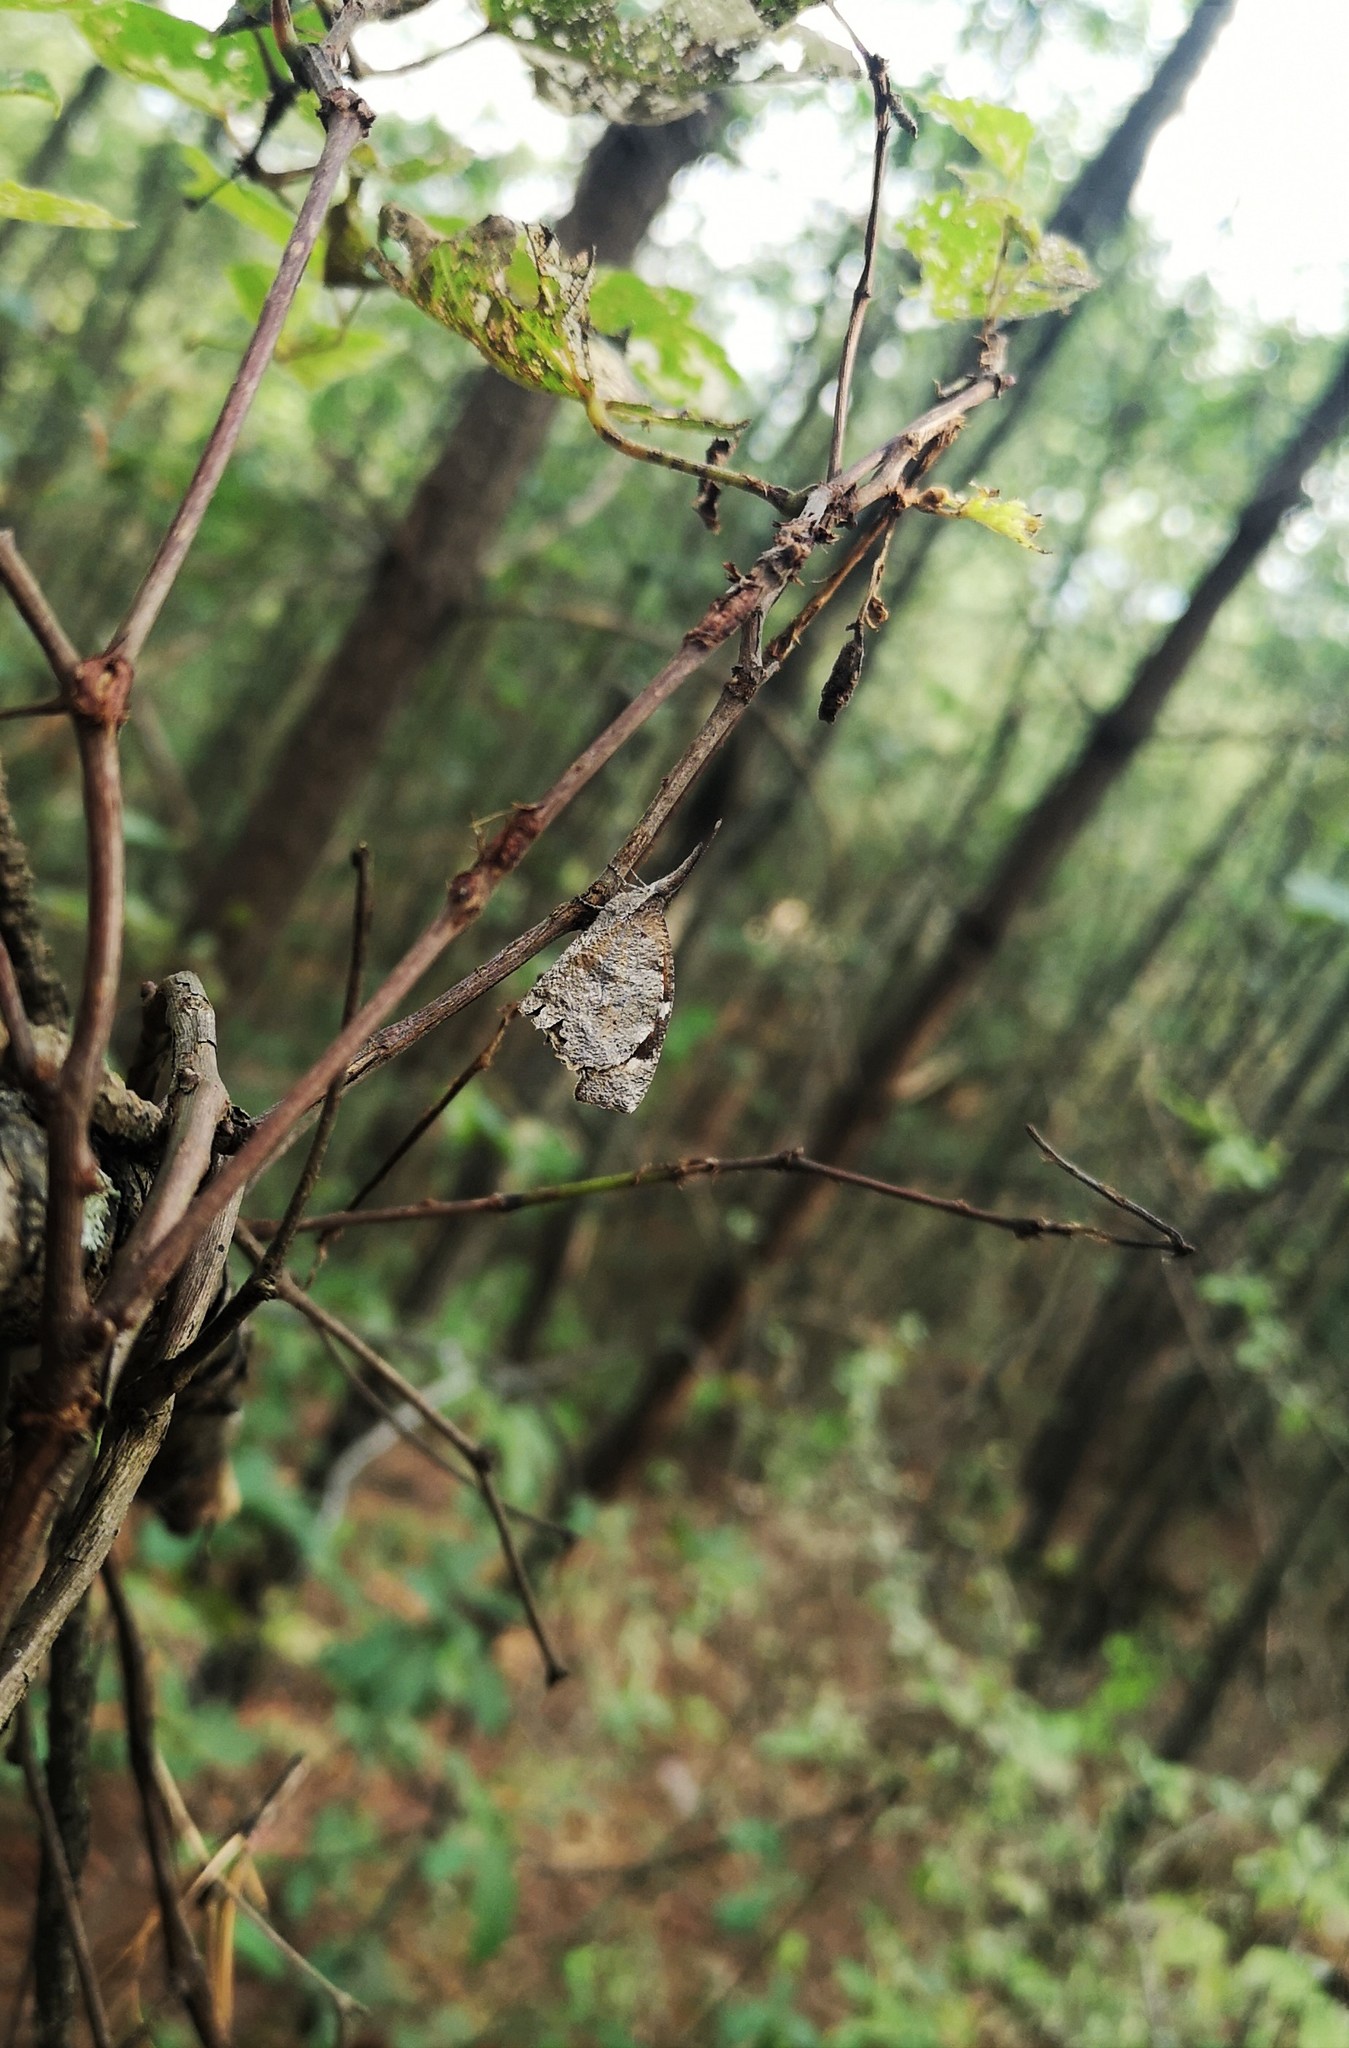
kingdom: Animalia
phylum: Arthropoda
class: Insecta
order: Lepidoptera
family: Nymphalidae
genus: Libytheana
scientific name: Libytheana carinenta
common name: American snout
